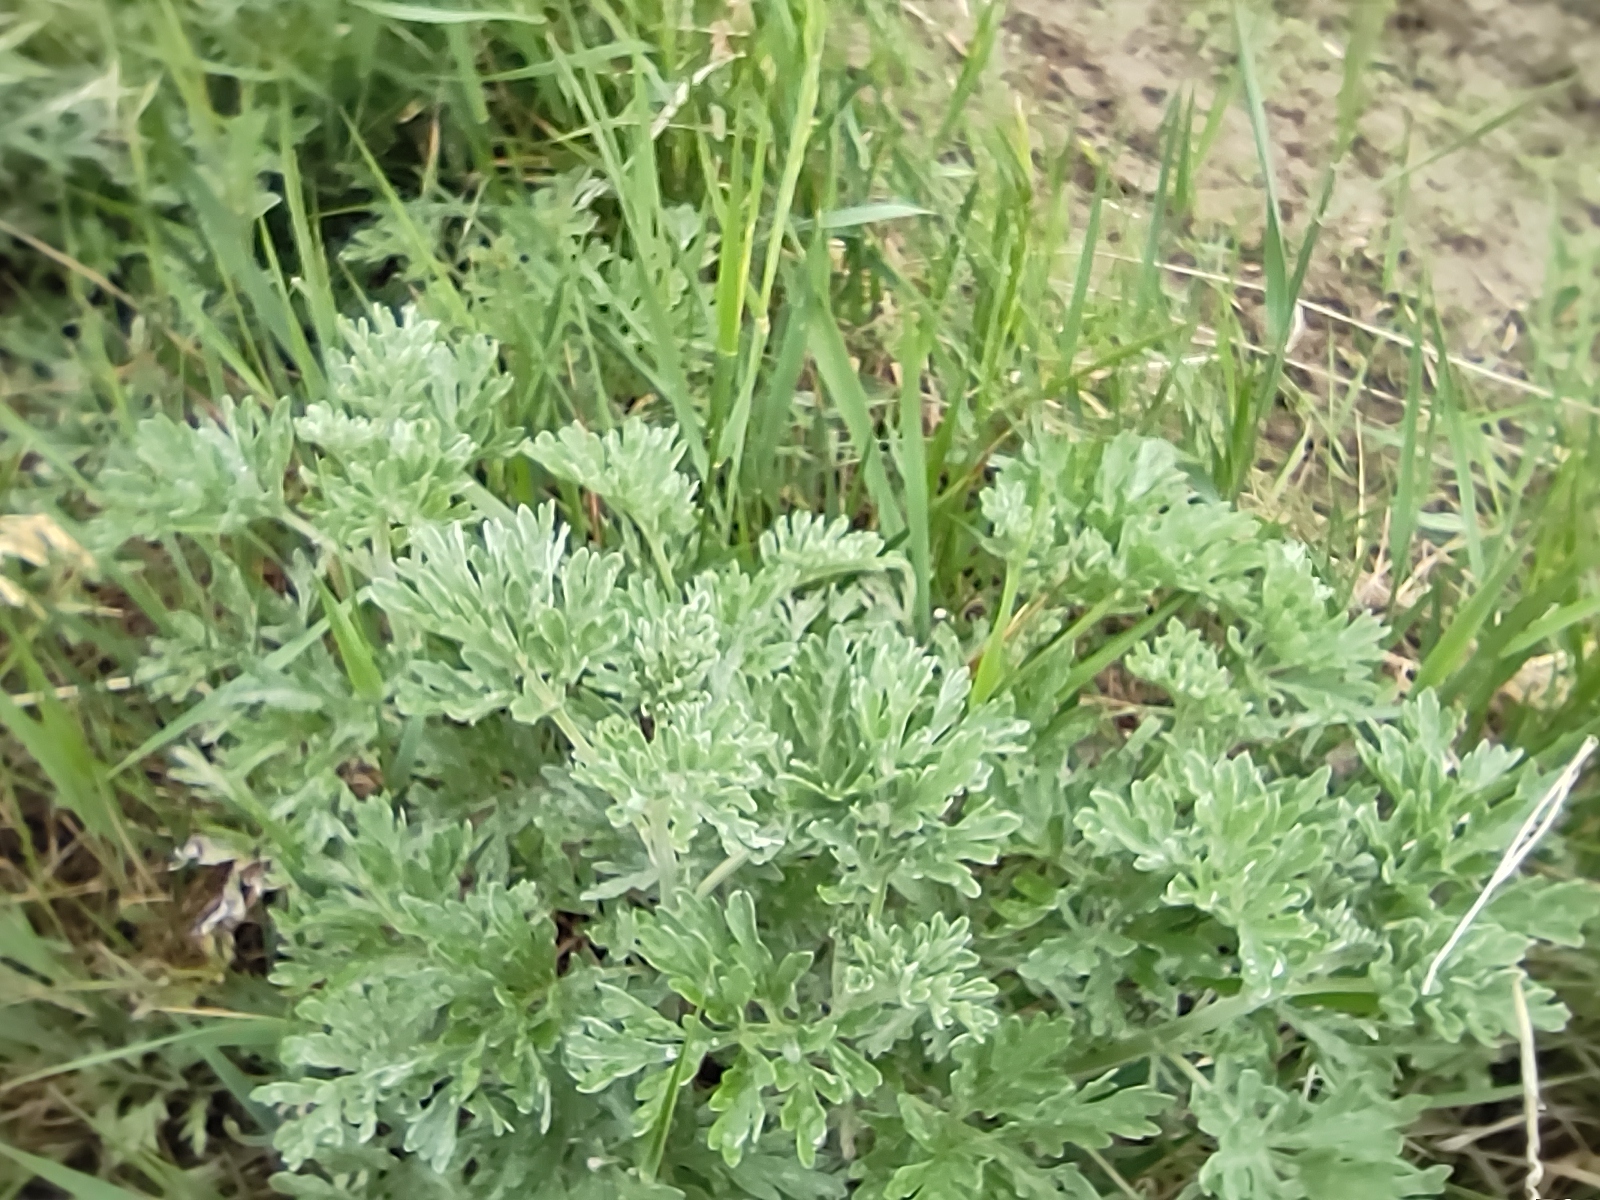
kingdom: Plantae
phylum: Tracheophyta
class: Magnoliopsida
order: Asterales
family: Asteraceae
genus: Artemisia
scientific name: Artemisia absinthium
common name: Wormwood
